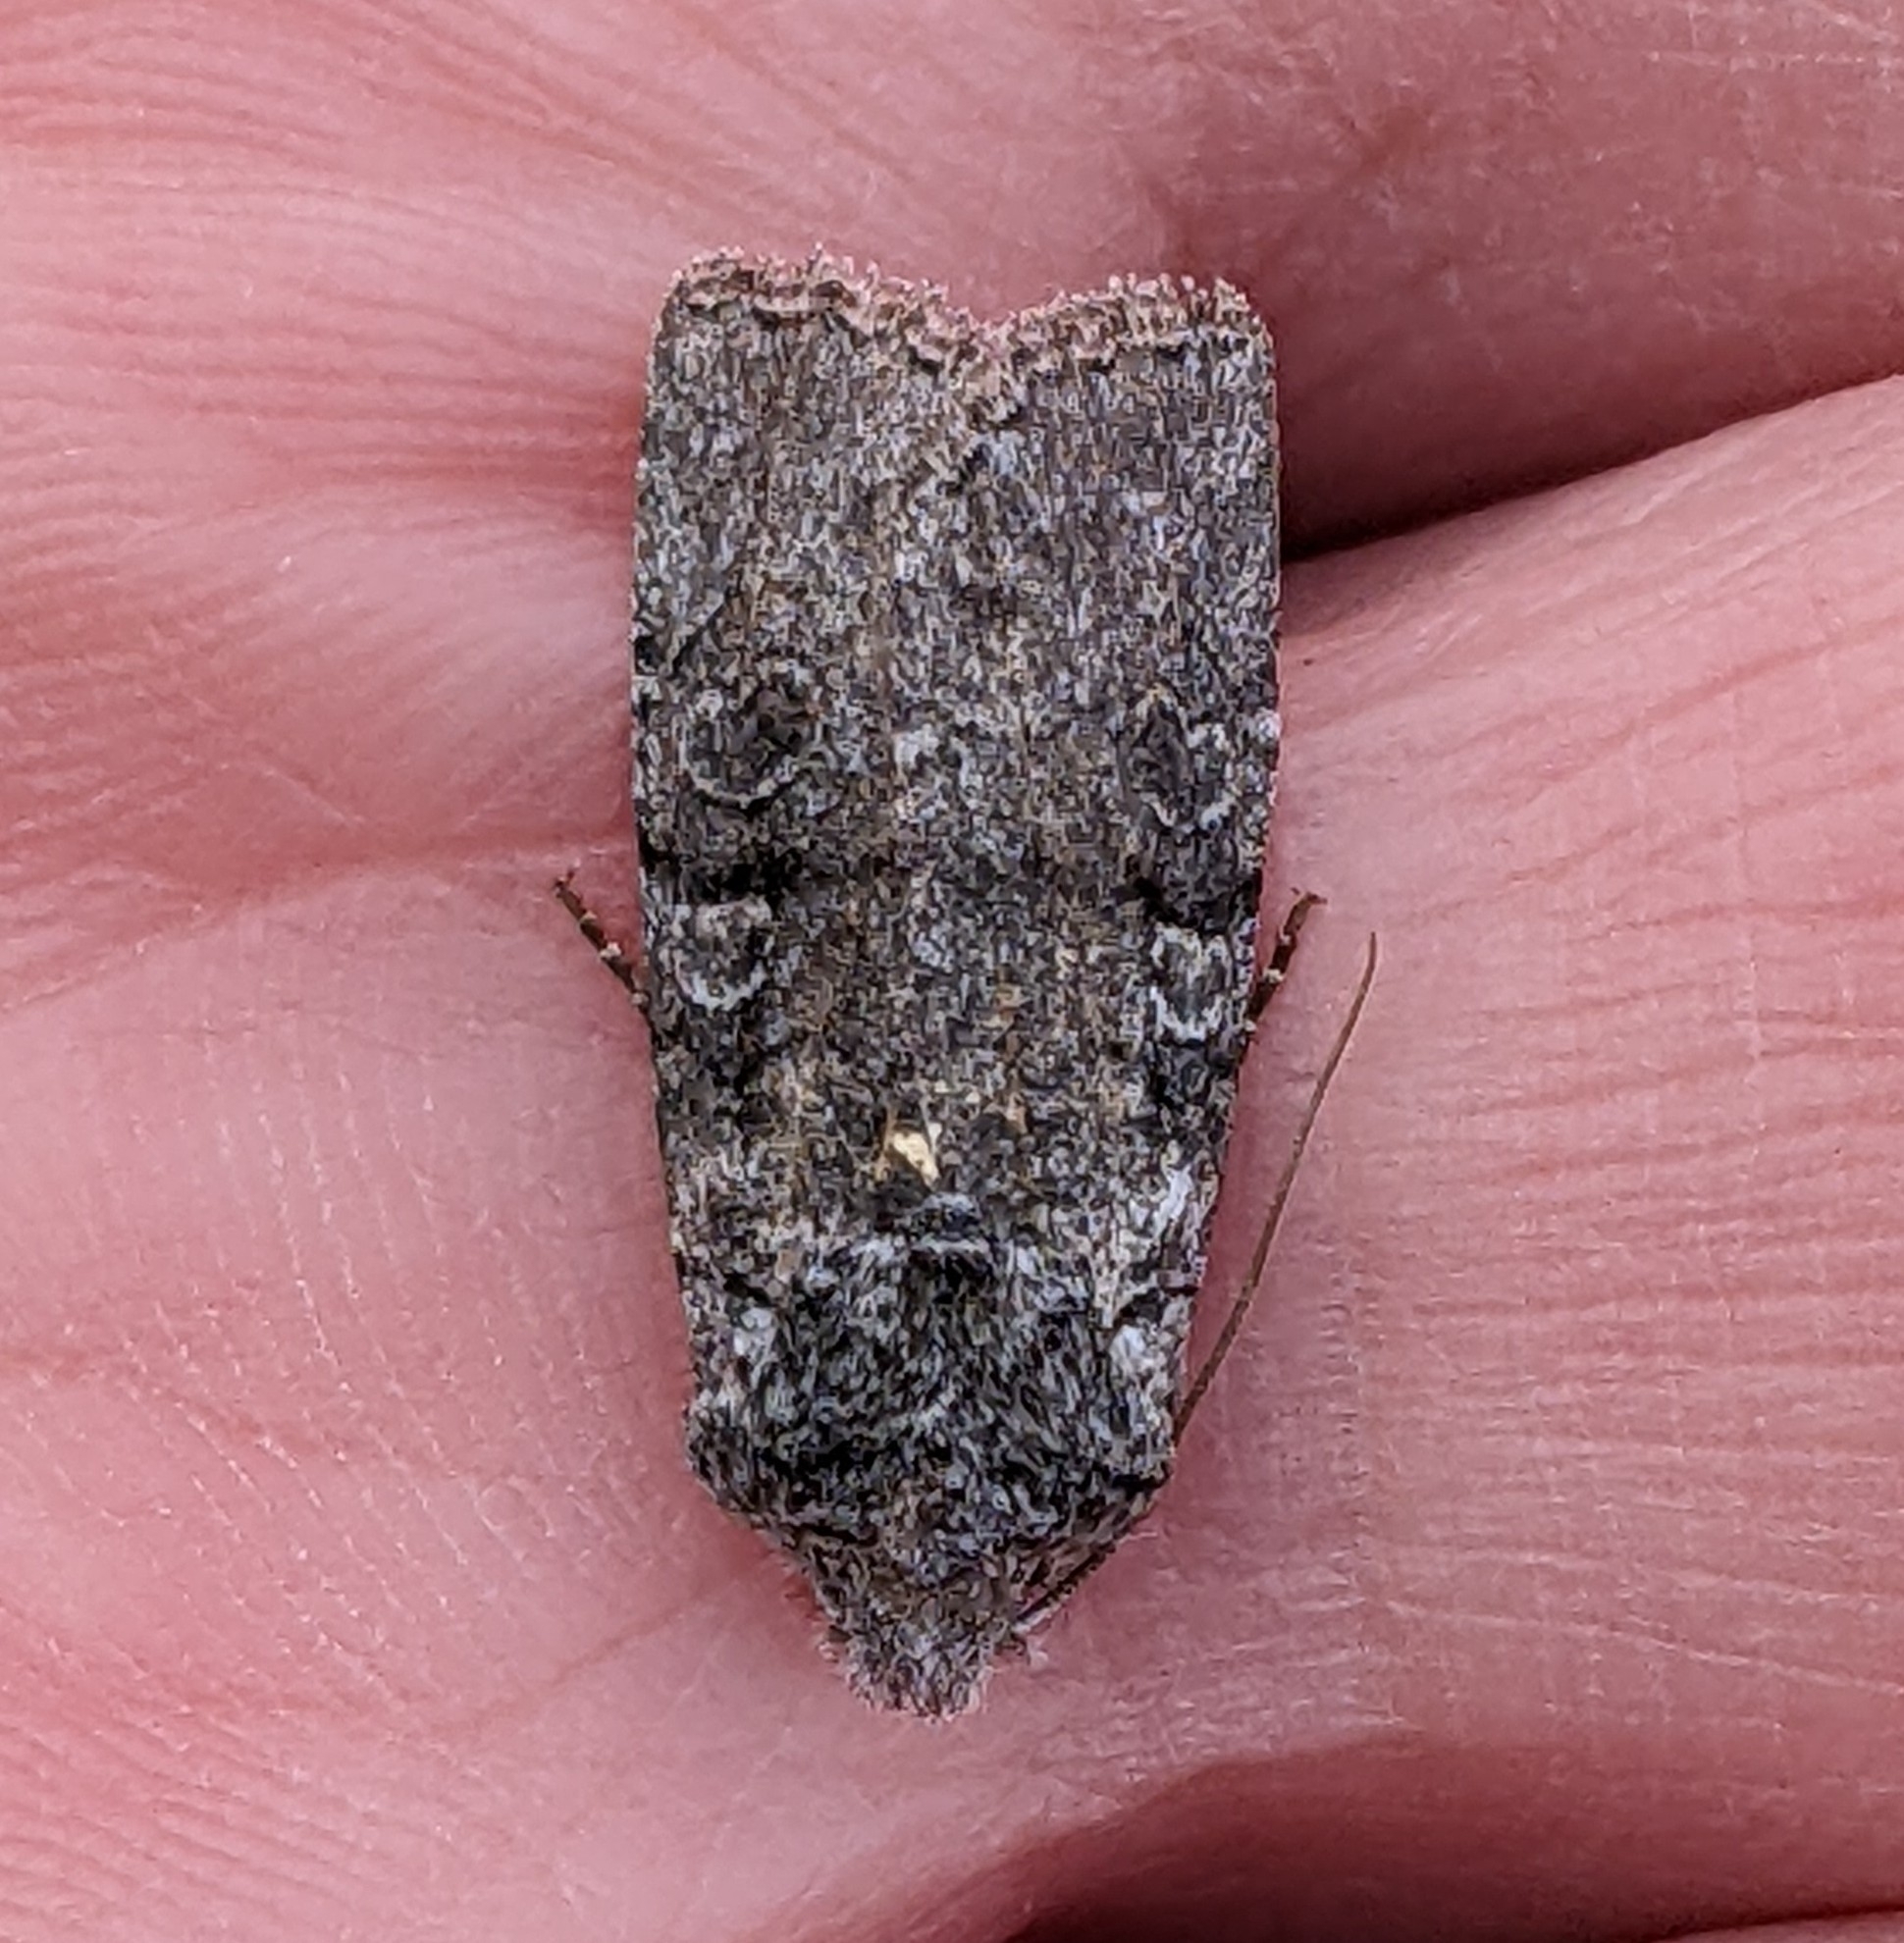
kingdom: Animalia
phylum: Arthropoda
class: Insecta
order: Lepidoptera
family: Noctuidae
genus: Litholomia
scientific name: Litholomia napaea
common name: False pinion moth
